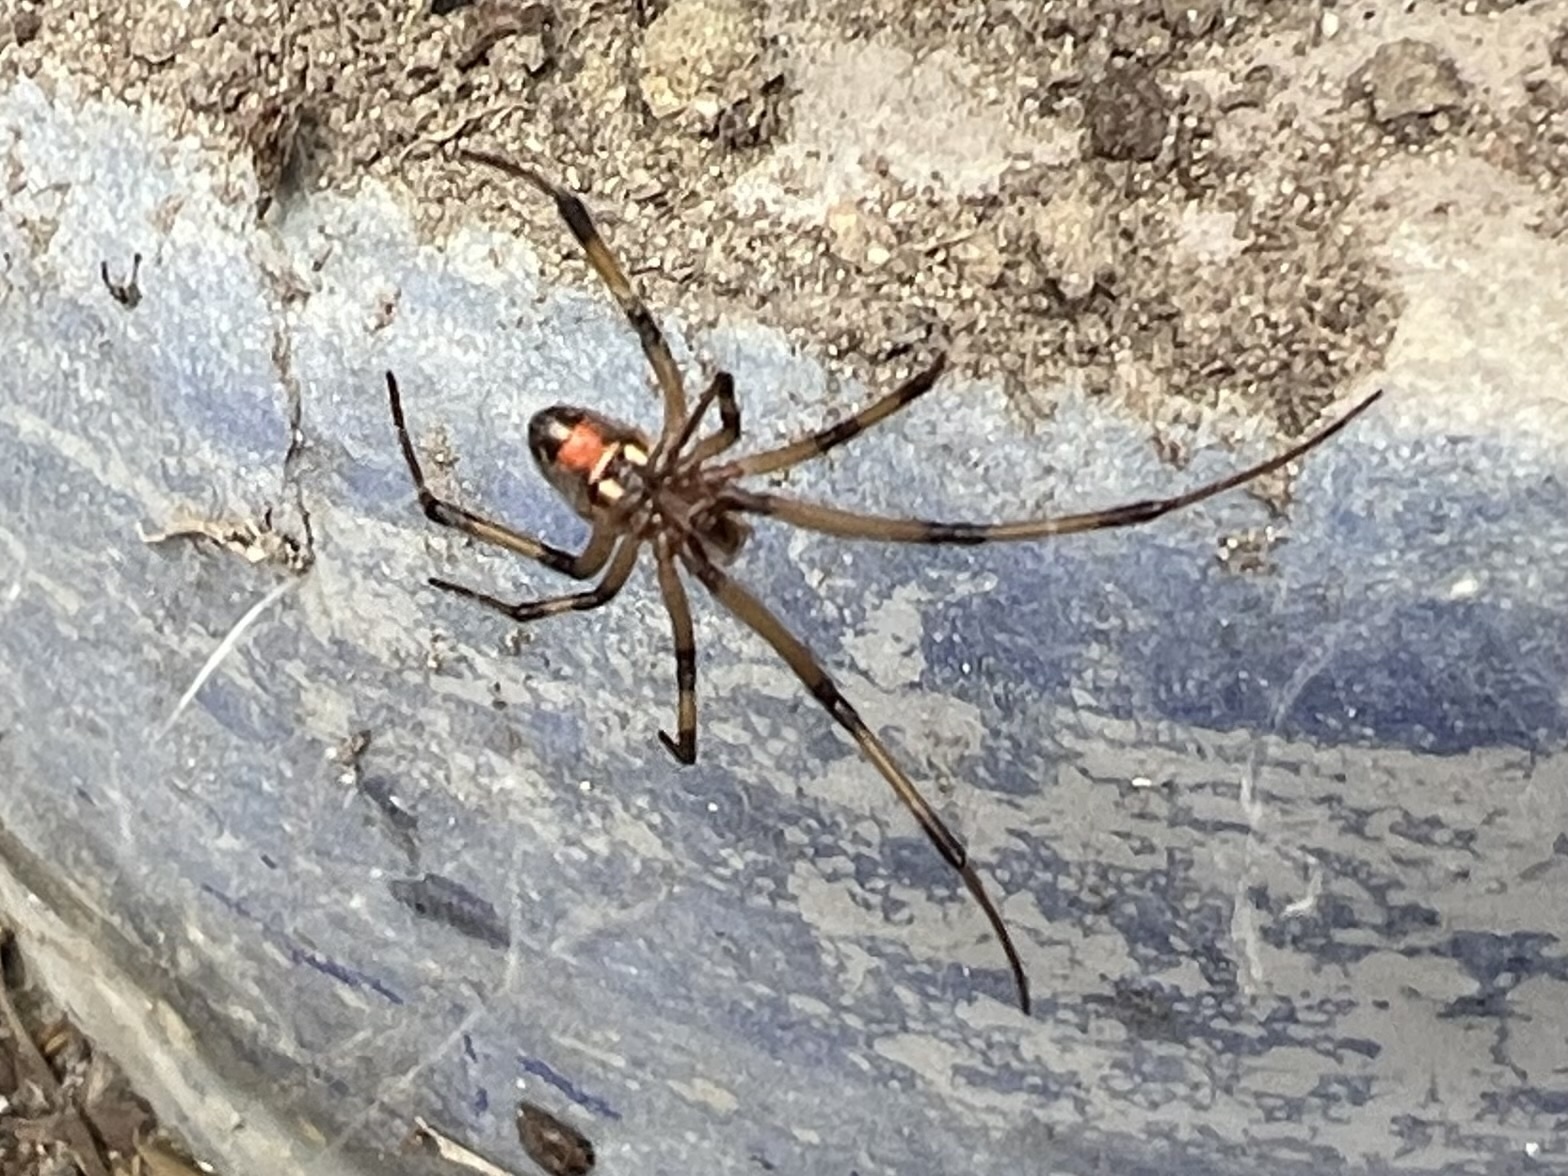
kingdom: Animalia
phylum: Arthropoda
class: Arachnida
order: Araneae
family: Theridiidae
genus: Latrodectus
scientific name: Latrodectus geometricus
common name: Brown widow spider
